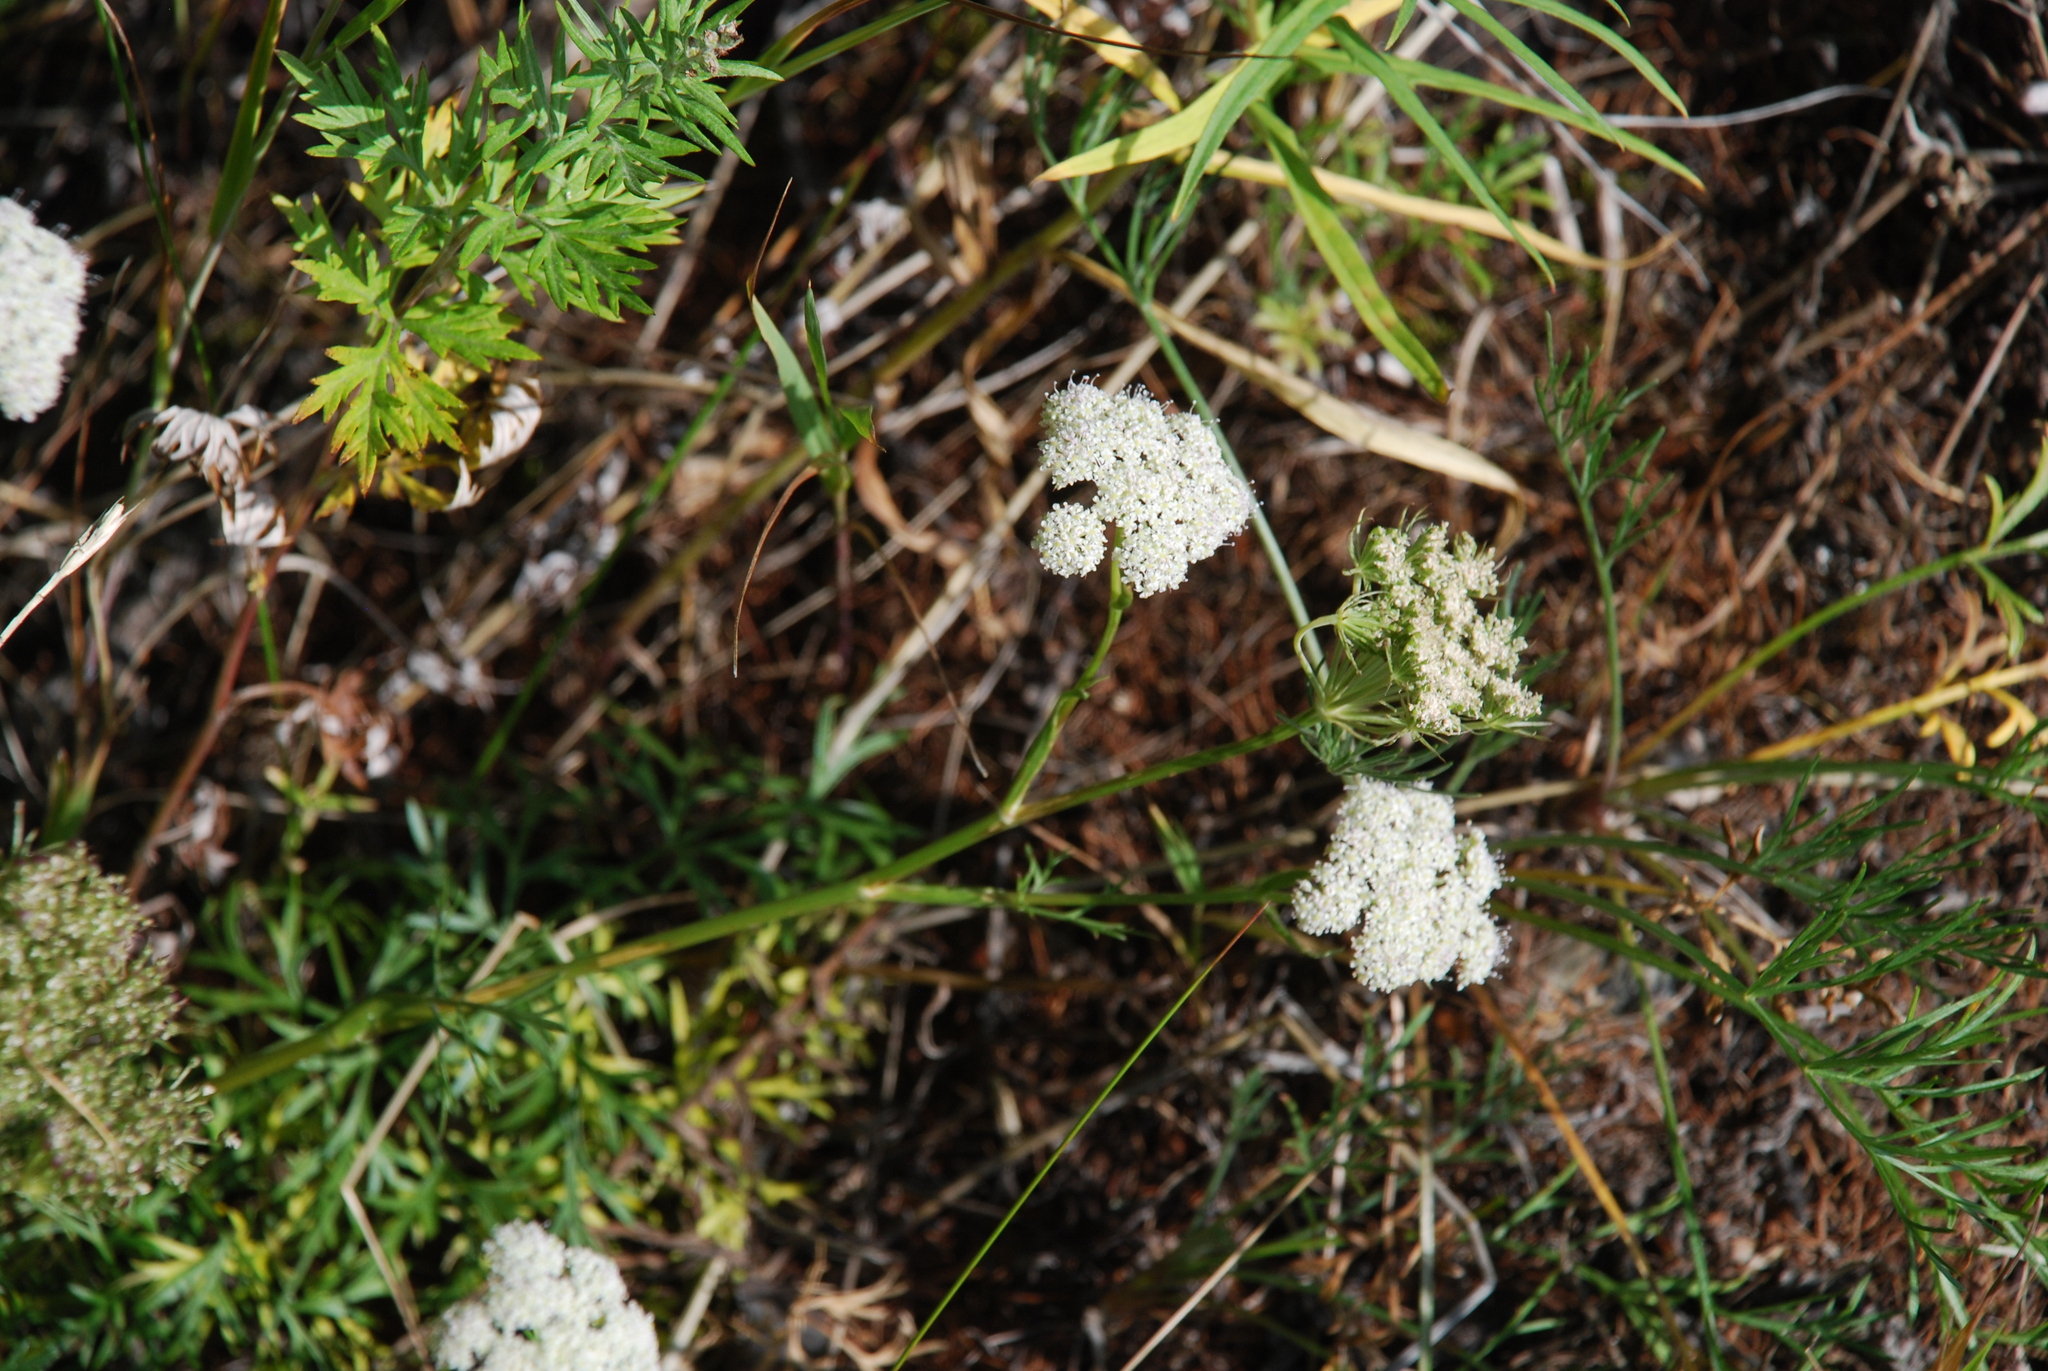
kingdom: Plantae
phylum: Tracheophyta
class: Magnoliopsida
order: Apiales
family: Apiaceae
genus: Kitagawia
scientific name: Kitagawia baicalensis
